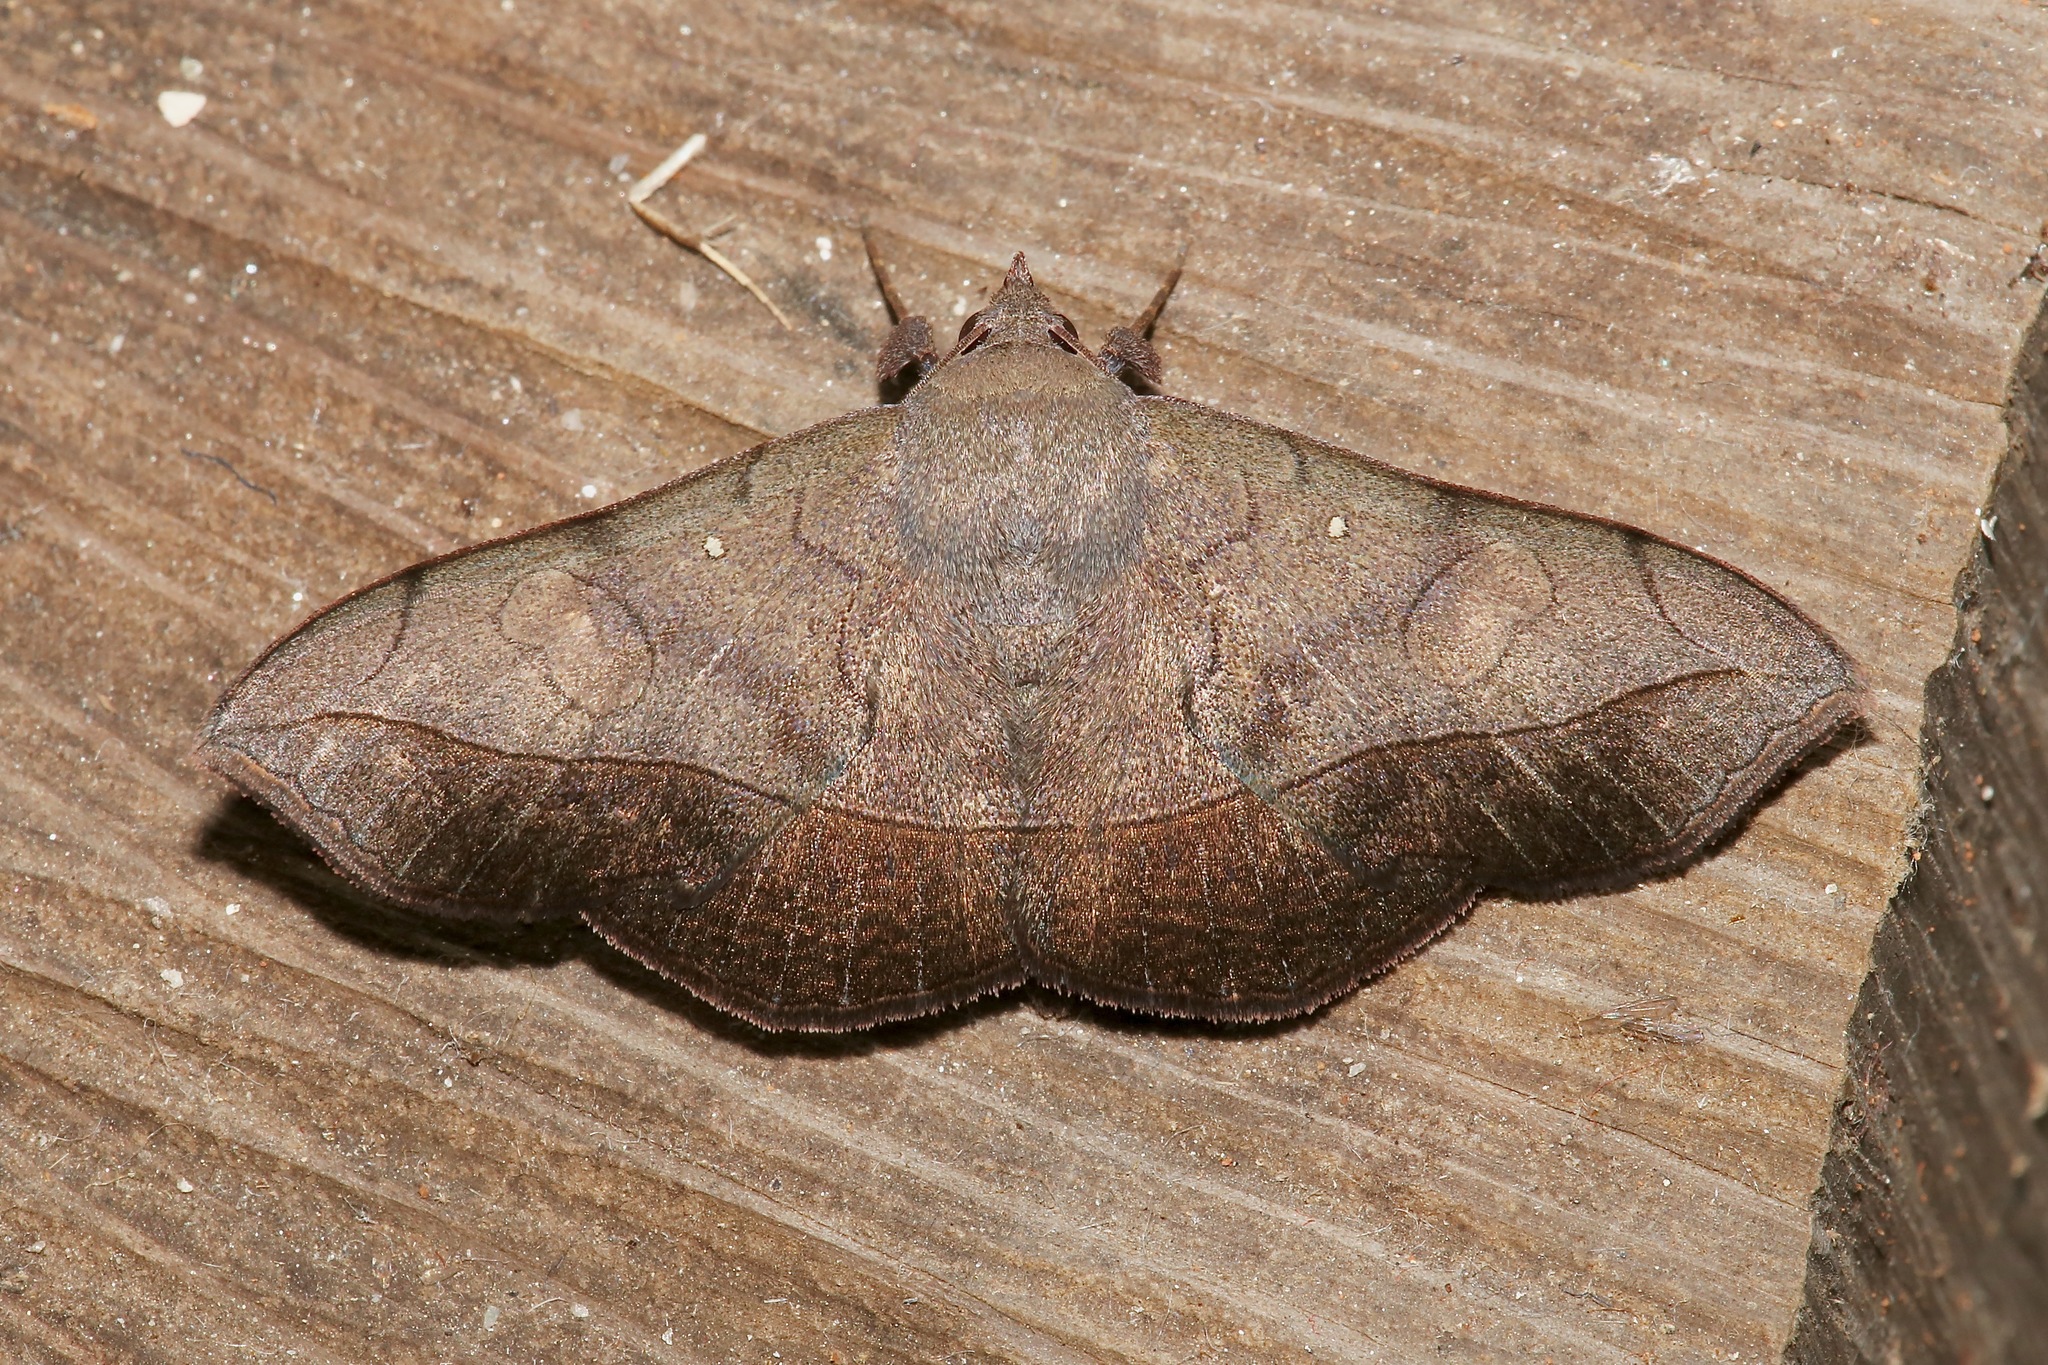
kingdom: Animalia
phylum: Arthropoda
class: Insecta
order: Lepidoptera
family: Erebidae
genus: Epitausa
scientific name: Epitausa prona
